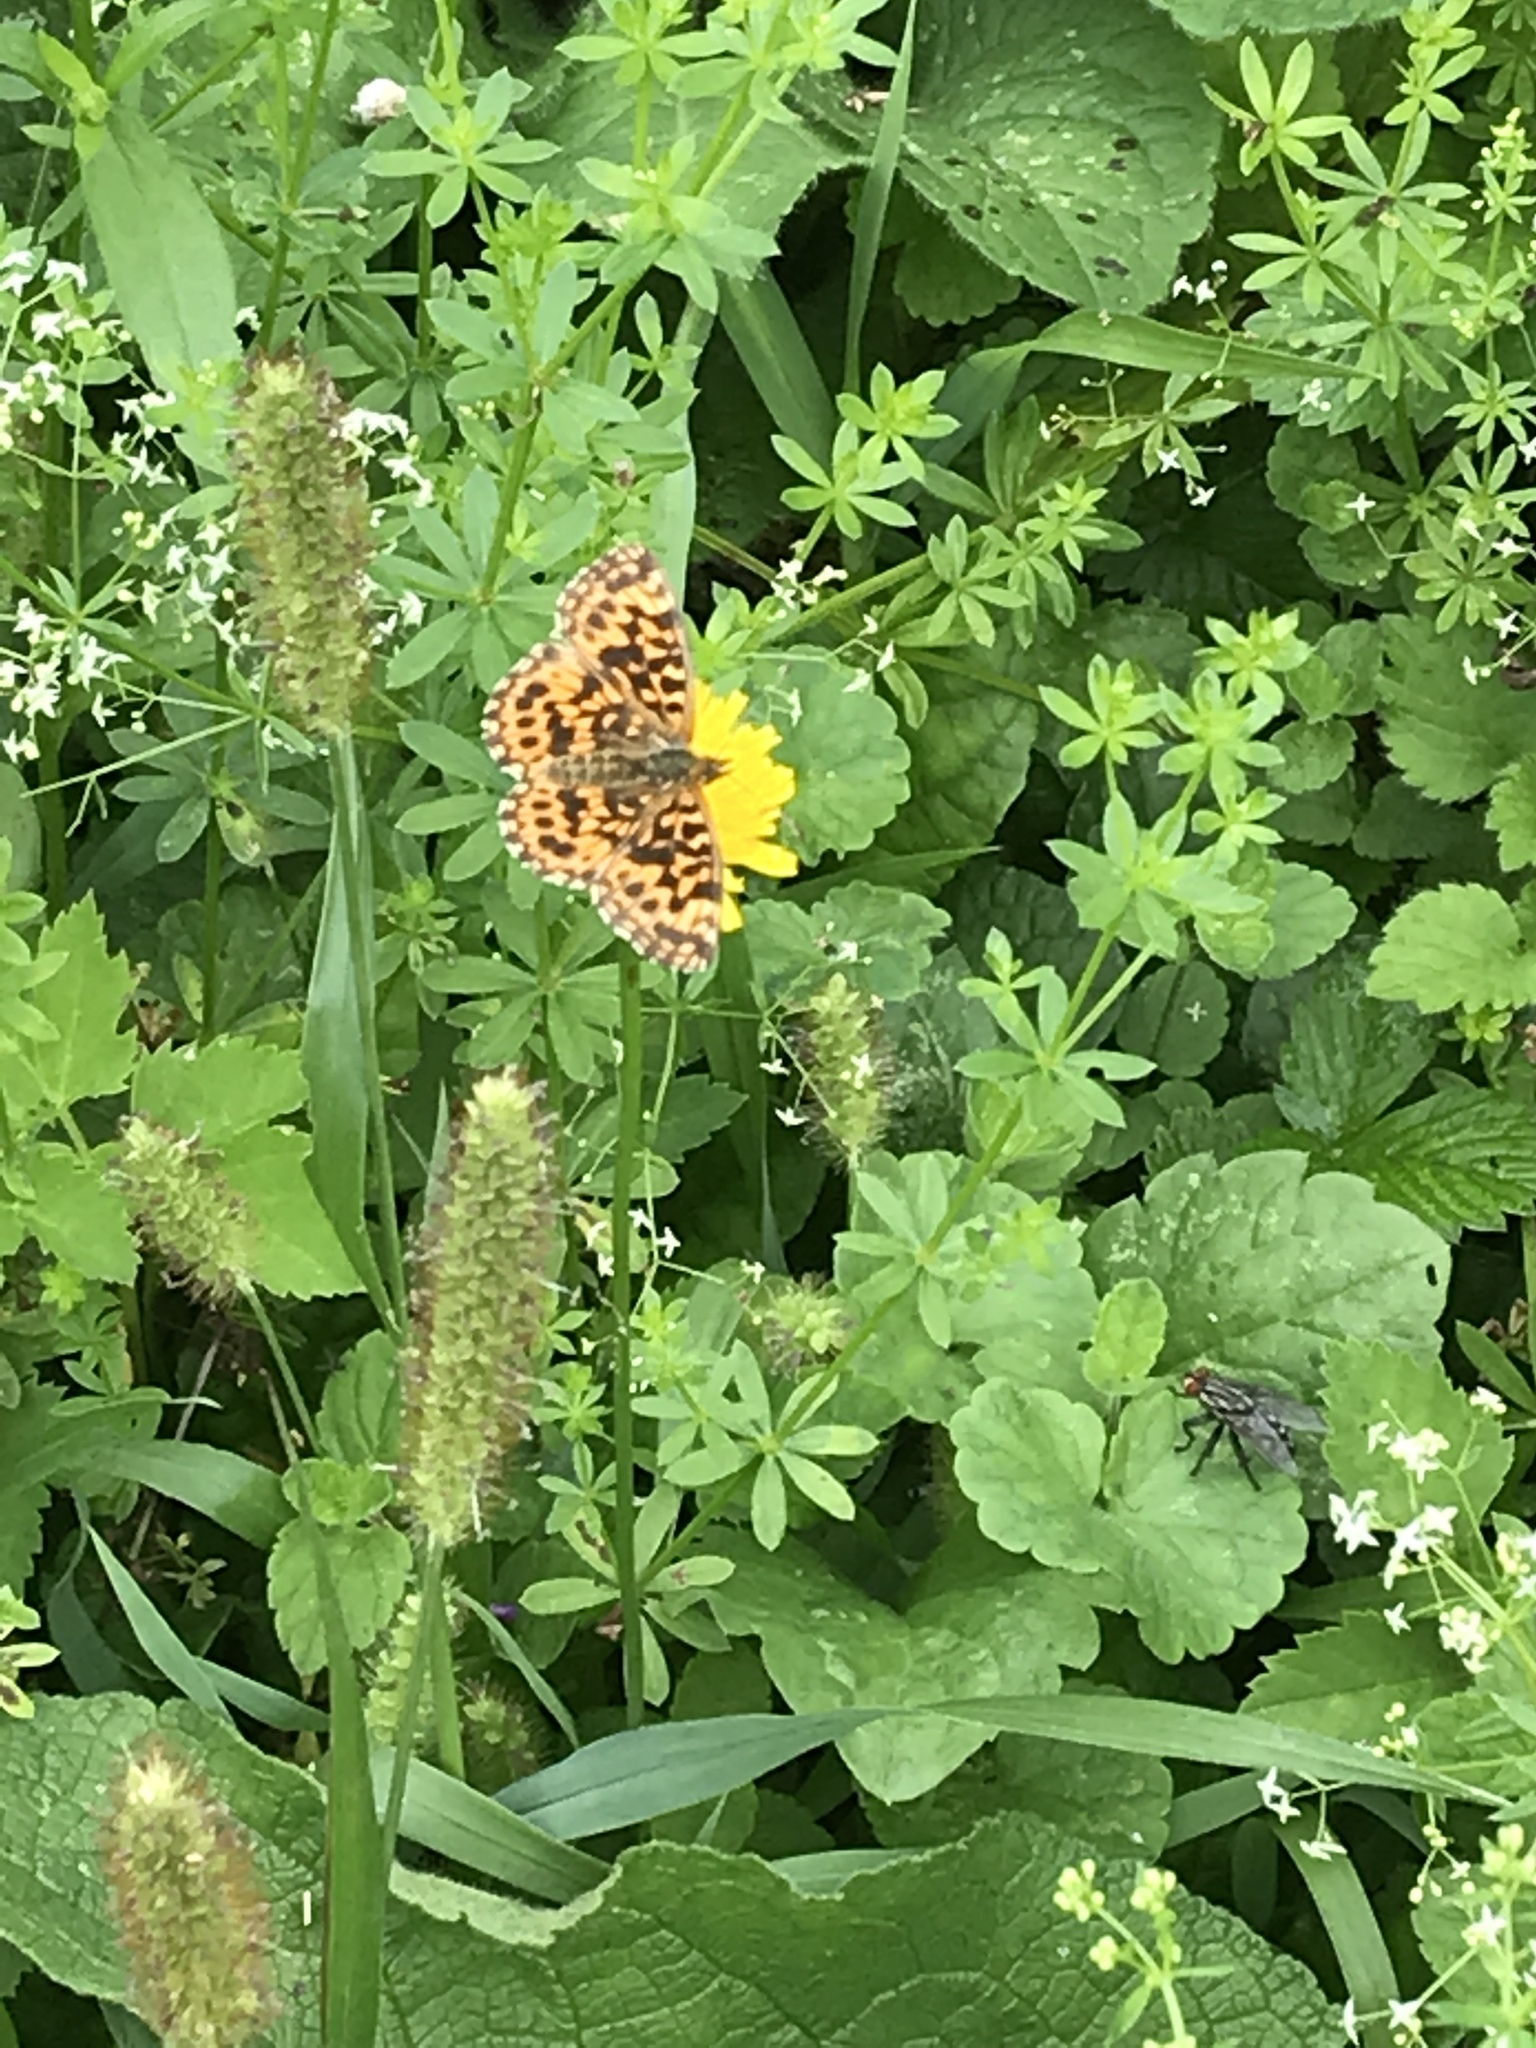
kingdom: Animalia
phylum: Arthropoda
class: Insecta
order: Lepidoptera
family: Nymphalidae
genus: Boloria
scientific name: Boloria dia
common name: Weaver's fritillary
